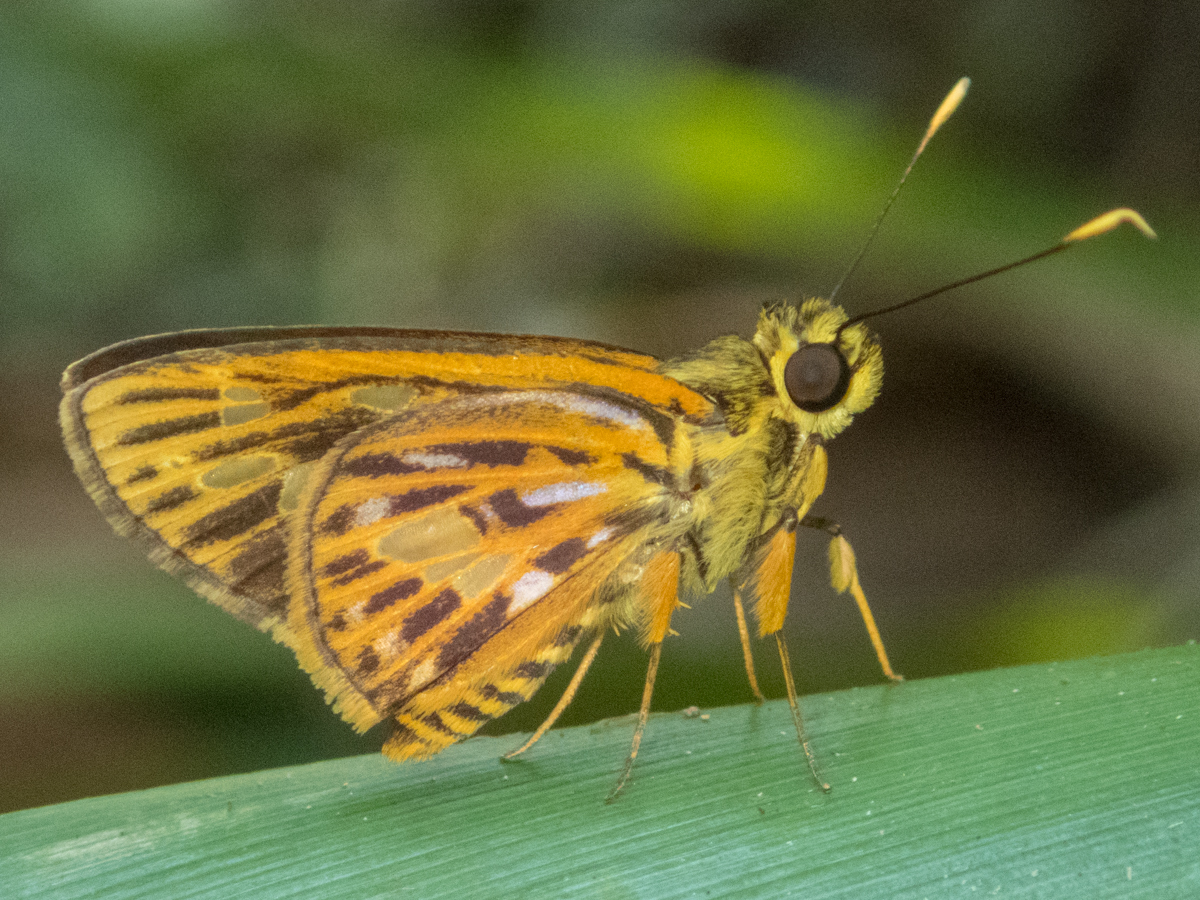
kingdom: Animalia
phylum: Arthropoda
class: Insecta
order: Lepidoptera
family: Hesperiidae
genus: Pyroneura
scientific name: Pyroneura margherita
